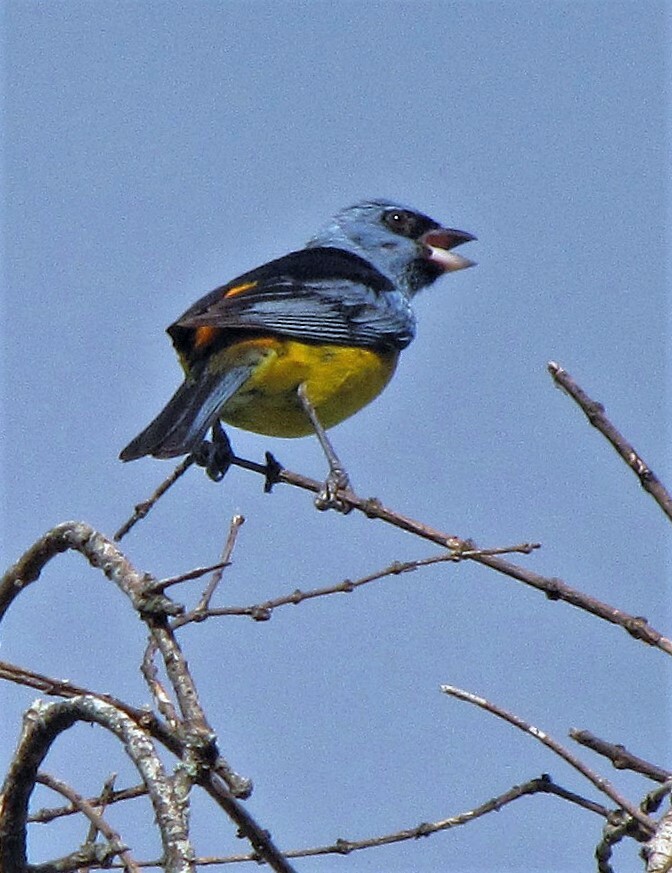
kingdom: Animalia
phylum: Chordata
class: Aves
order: Passeriformes
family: Thraupidae
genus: Rauenia
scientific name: Rauenia bonariensis
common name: Blue-and-yellow tanager
